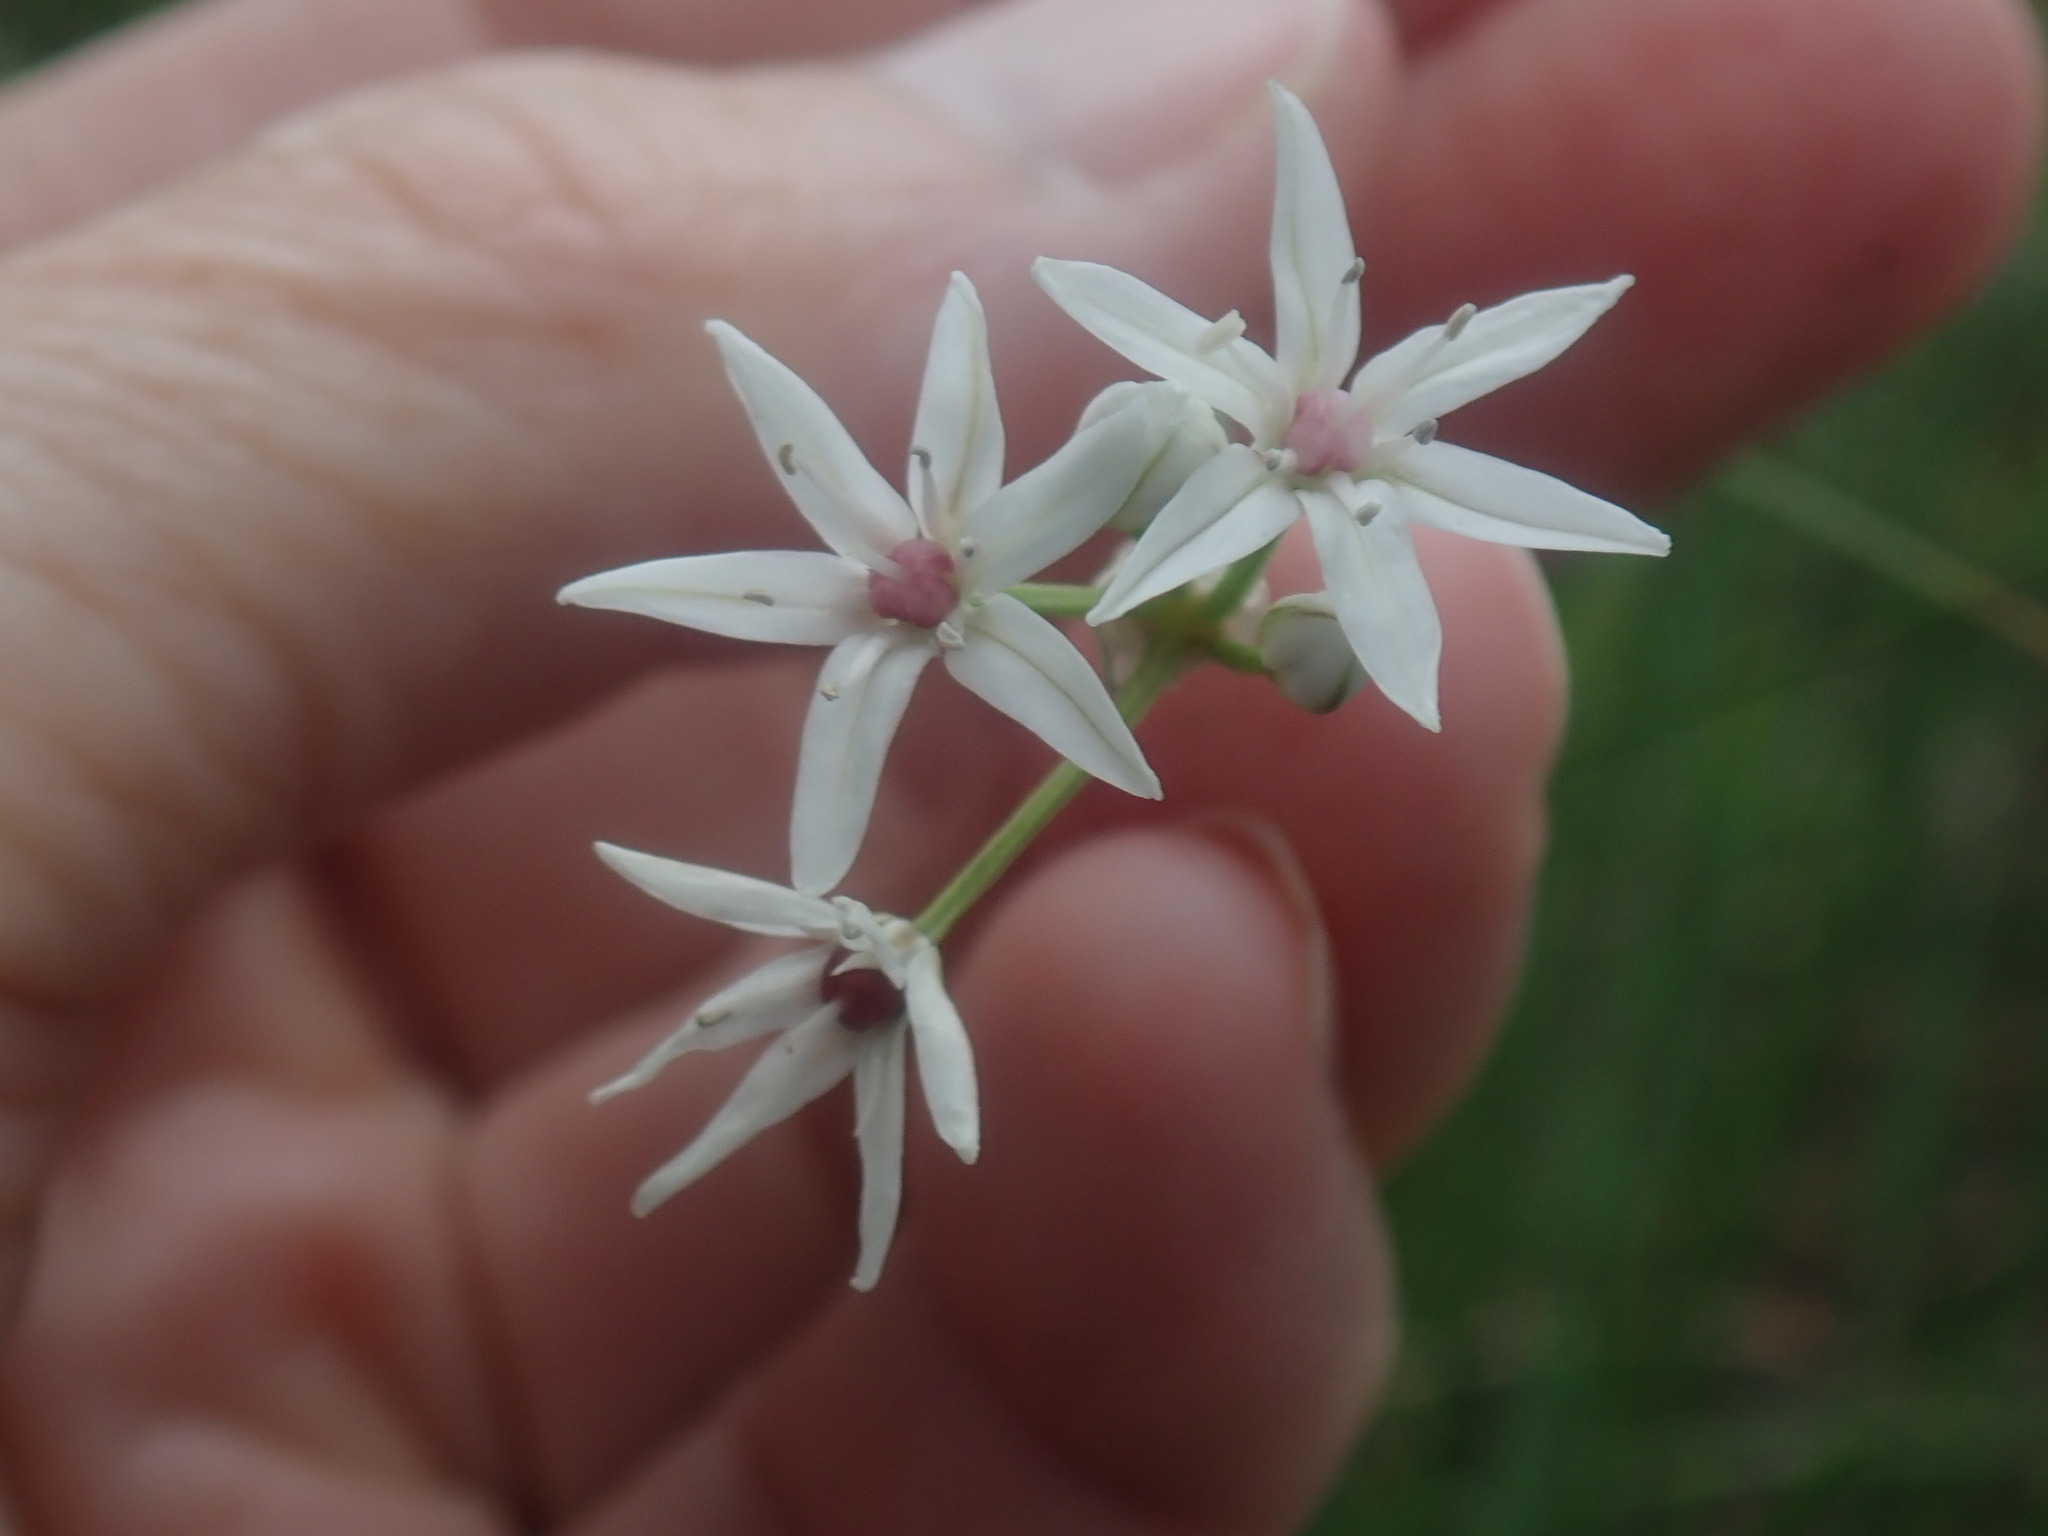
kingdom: Plantae
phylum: Tracheophyta
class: Liliopsida
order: Asparagales
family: Amaryllidaceae
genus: Allium
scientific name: Allium glandulosum
